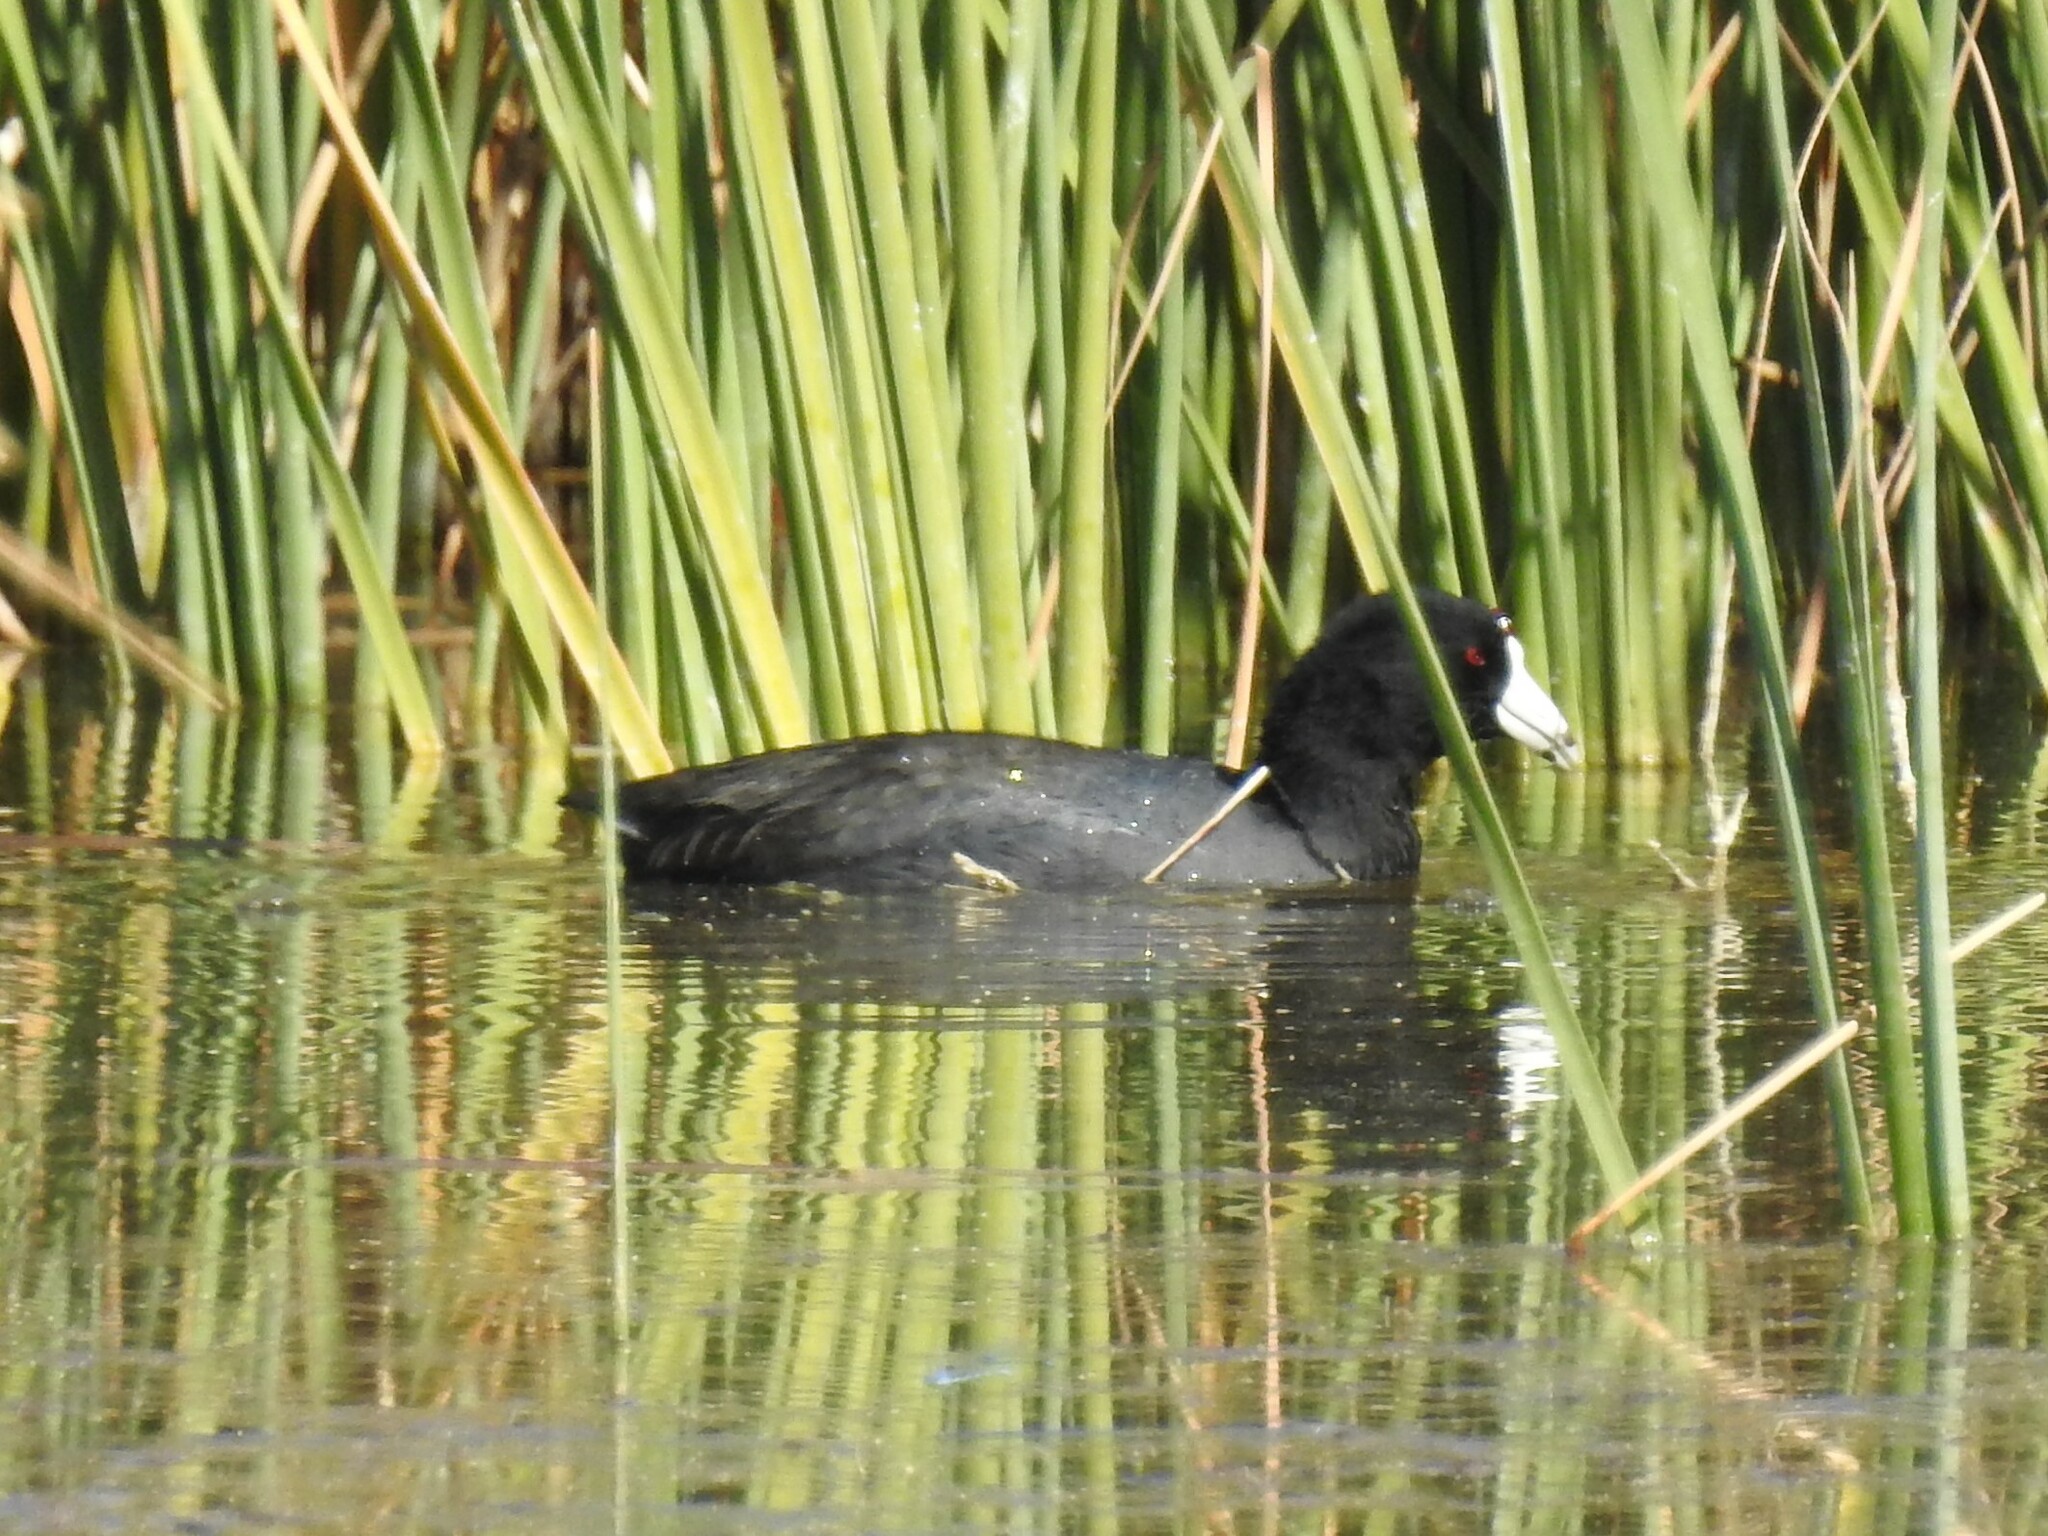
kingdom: Animalia
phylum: Chordata
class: Aves
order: Gruiformes
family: Rallidae
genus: Fulica
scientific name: Fulica americana
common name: American coot
